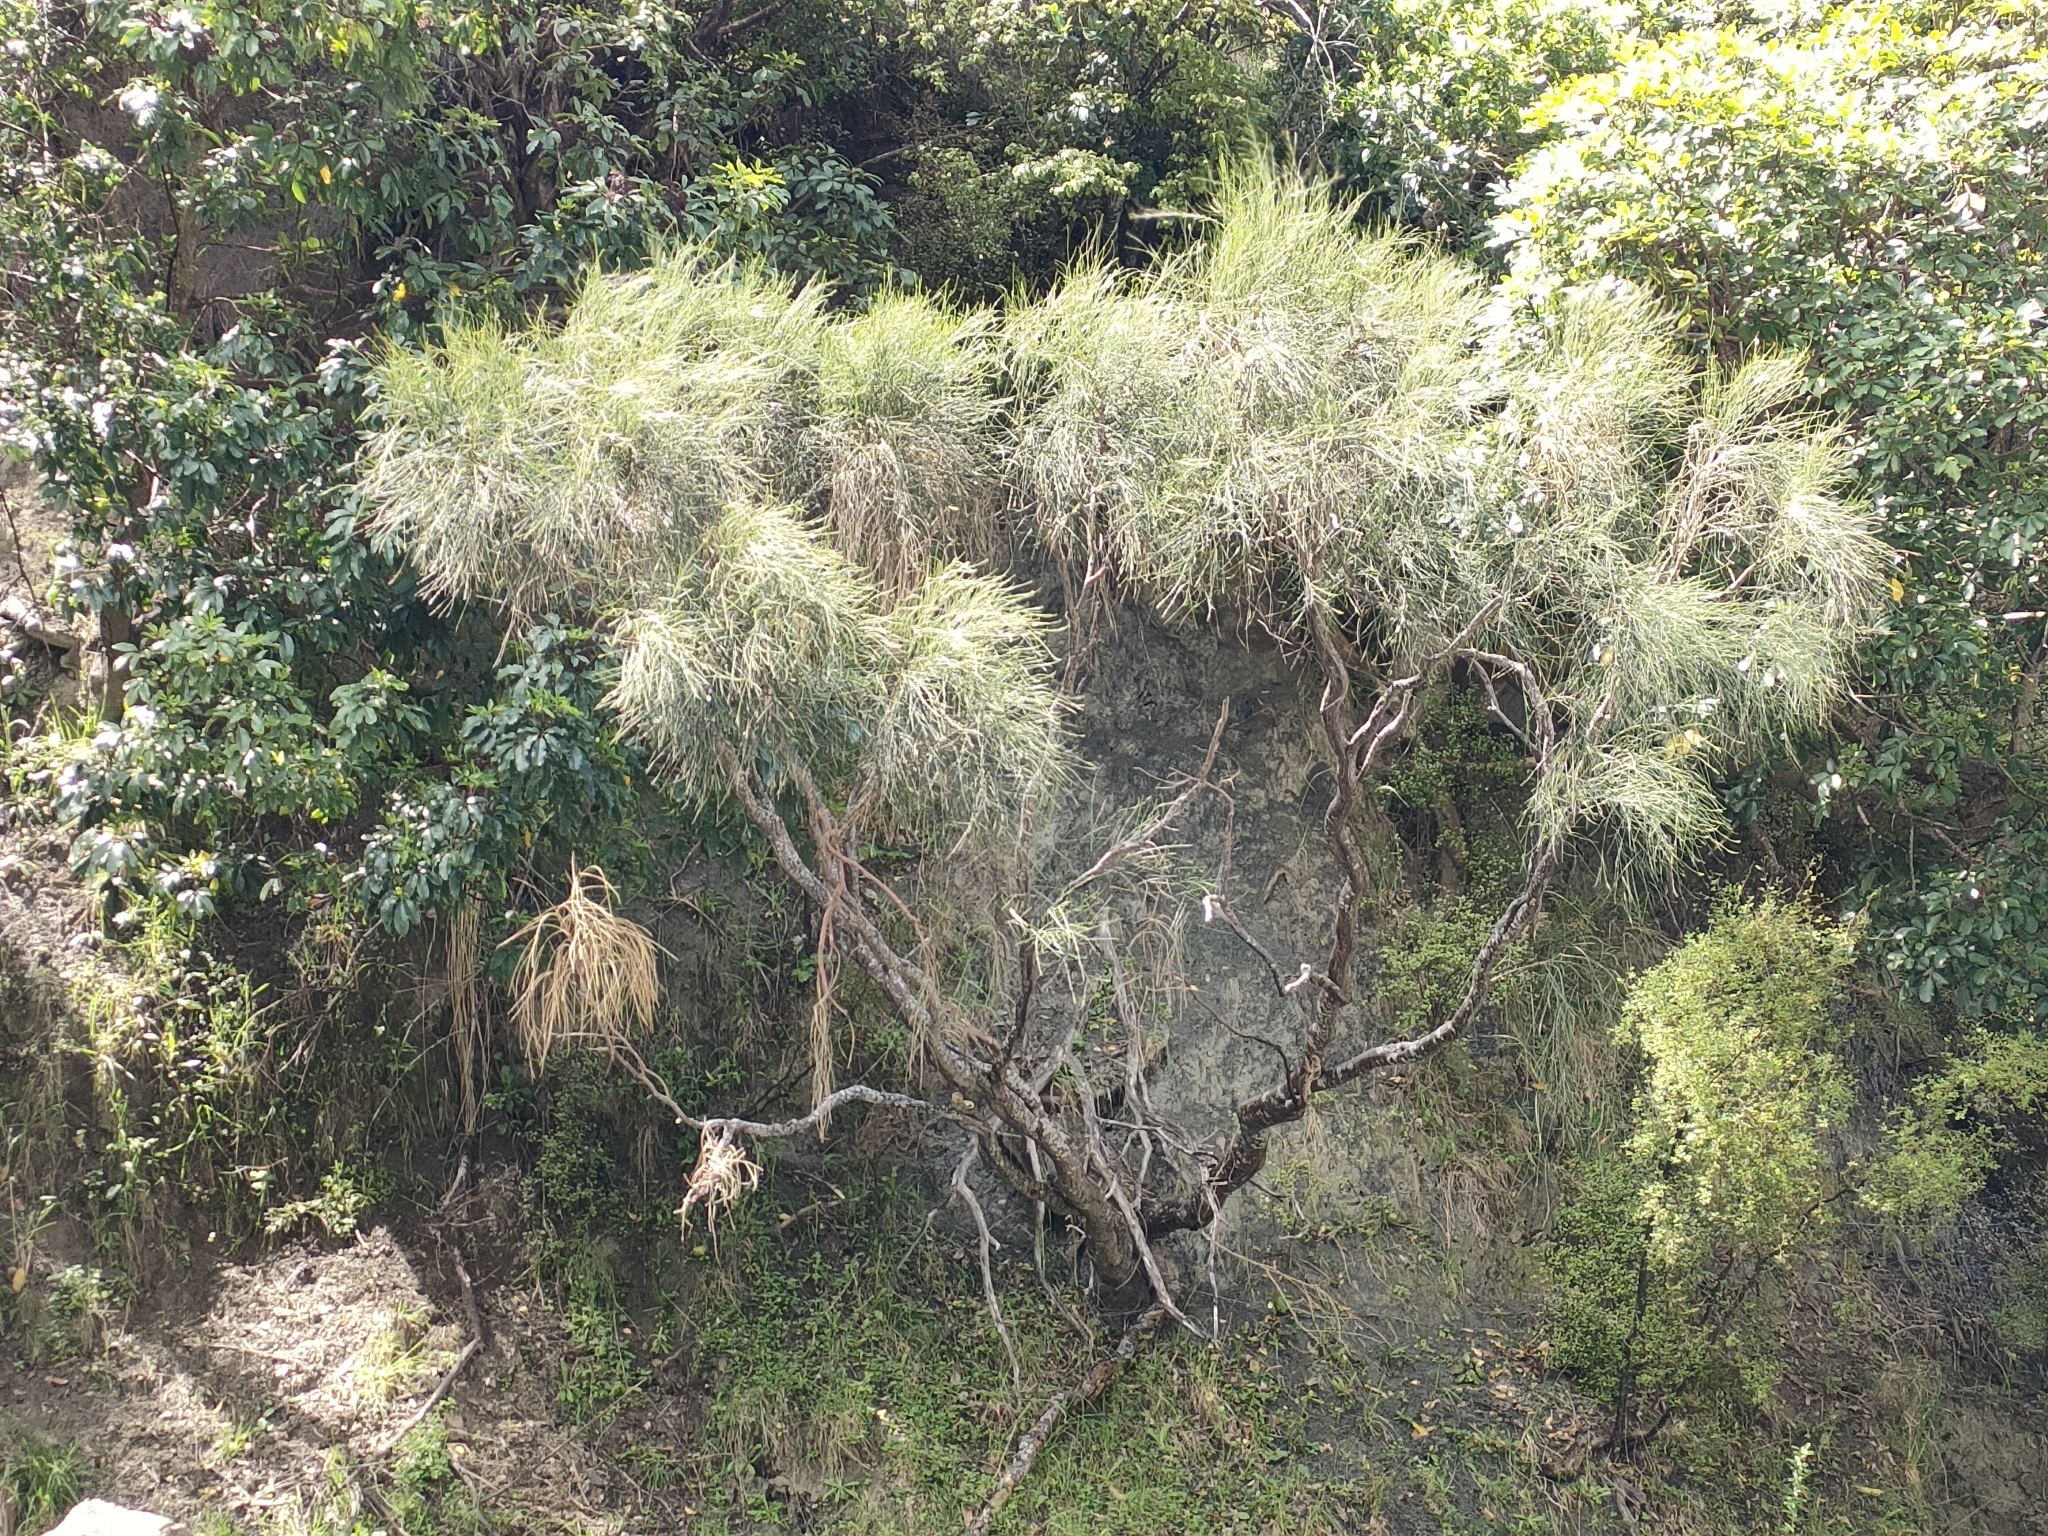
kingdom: Plantae
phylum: Tracheophyta
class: Magnoliopsida
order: Fabales
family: Fabaceae
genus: Carmichaelia
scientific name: Carmichaelia glabrescens
